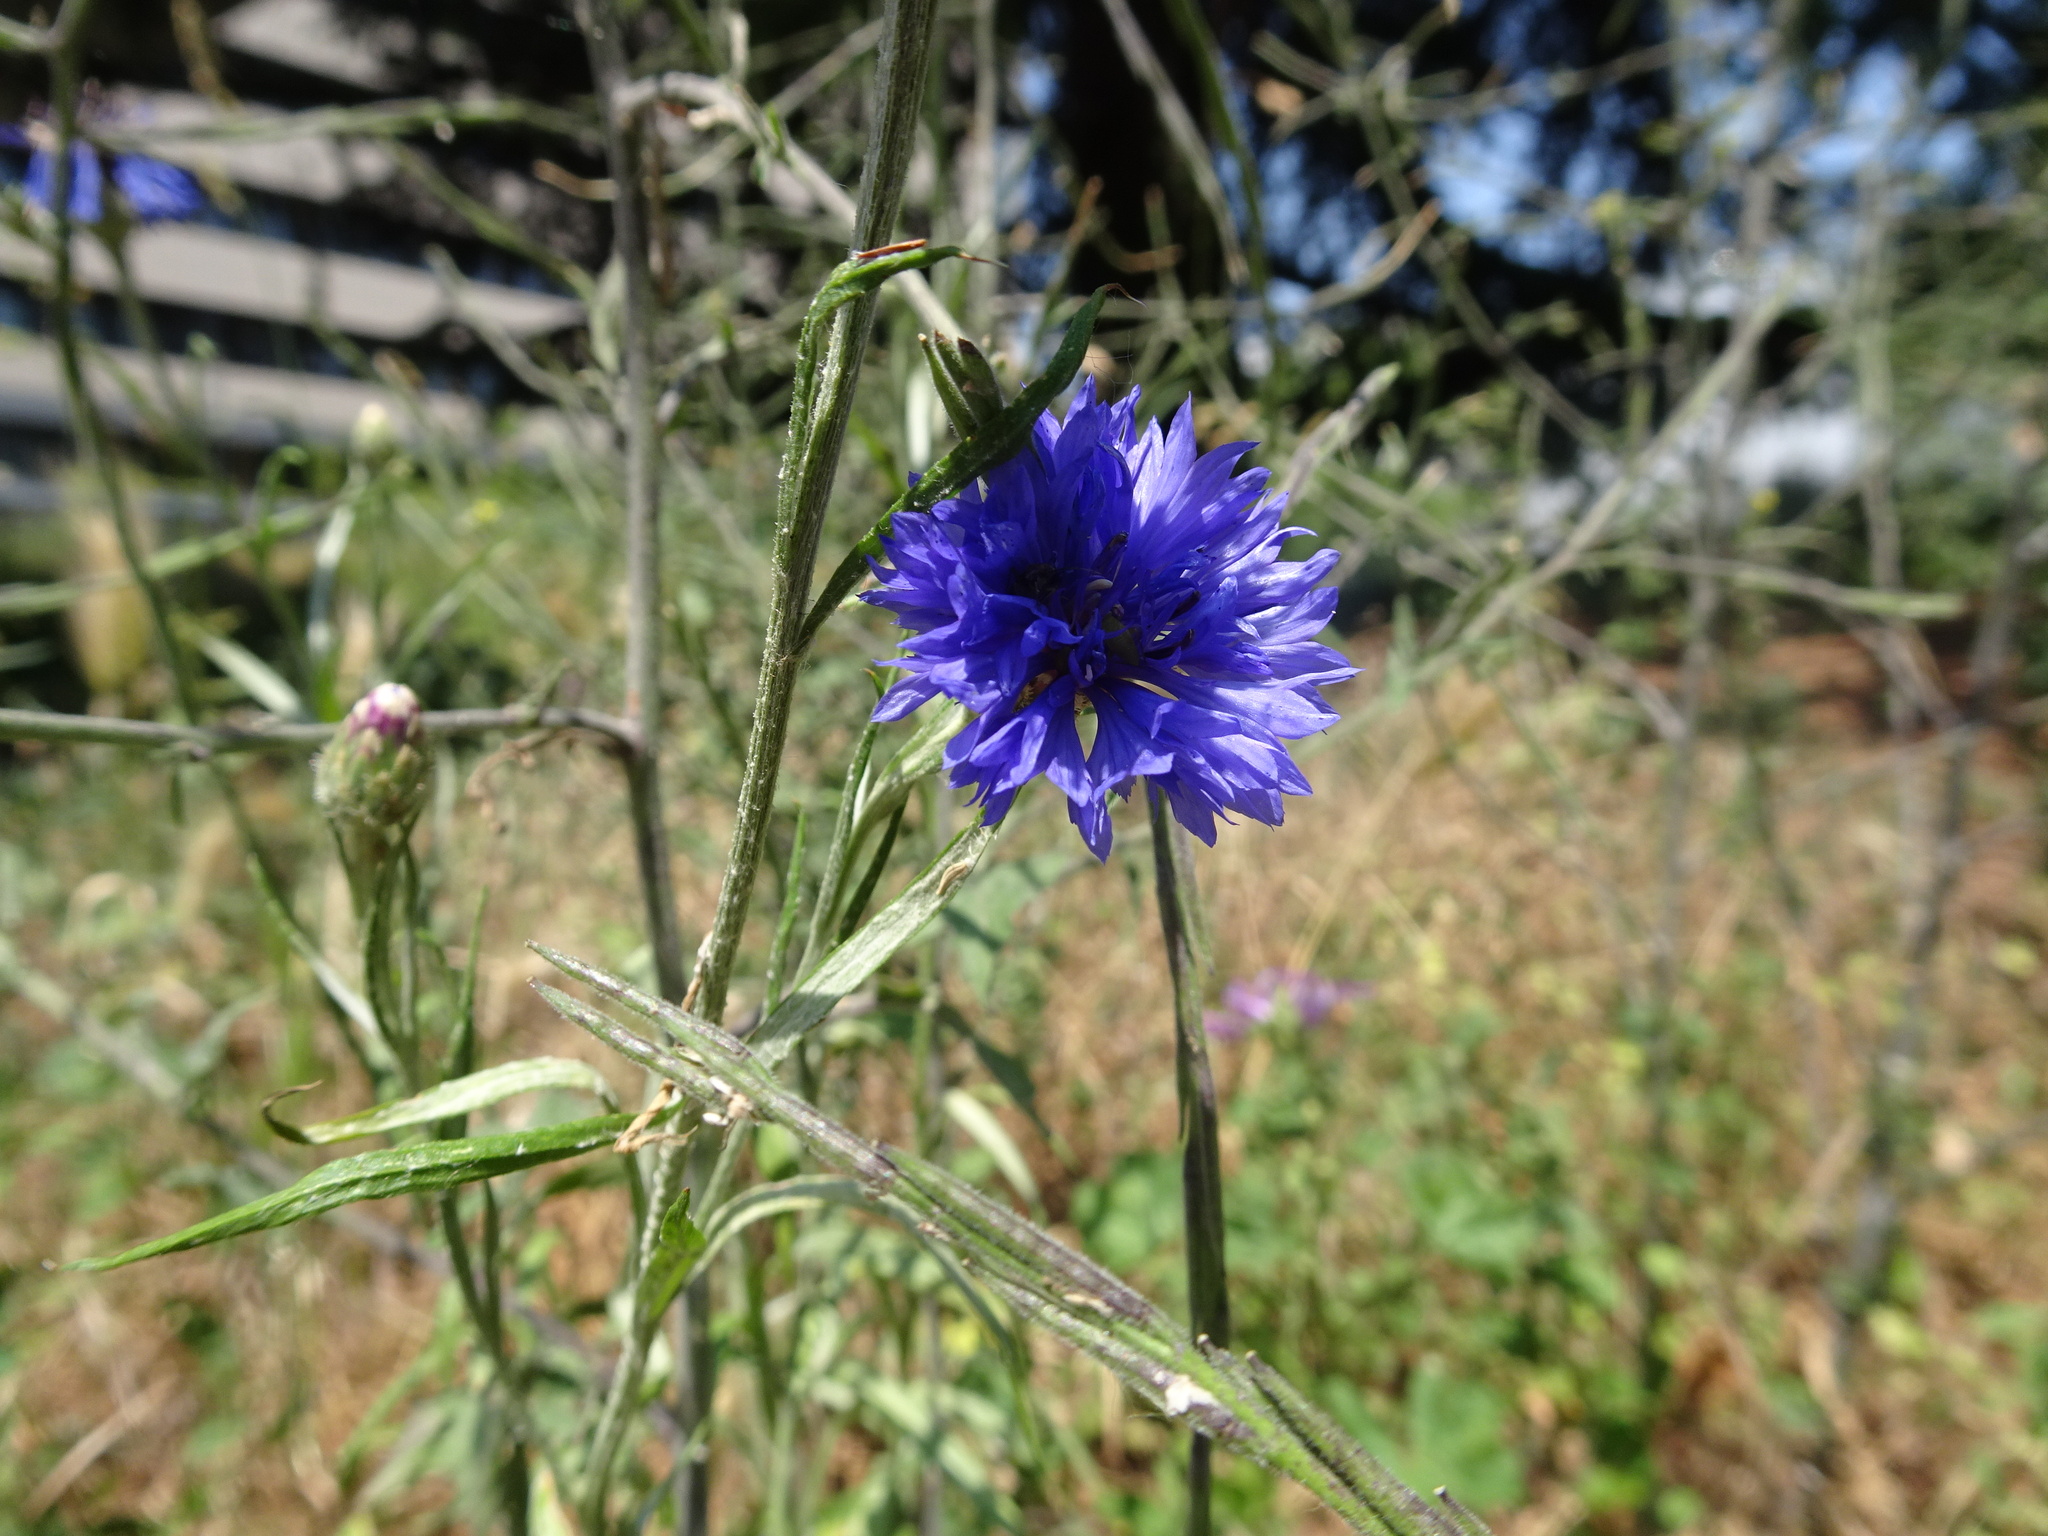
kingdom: Plantae
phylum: Tracheophyta
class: Magnoliopsida
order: Asterales
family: Asteraceae
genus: Centaurea
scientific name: Centaurea cyanus
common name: Cornflower
